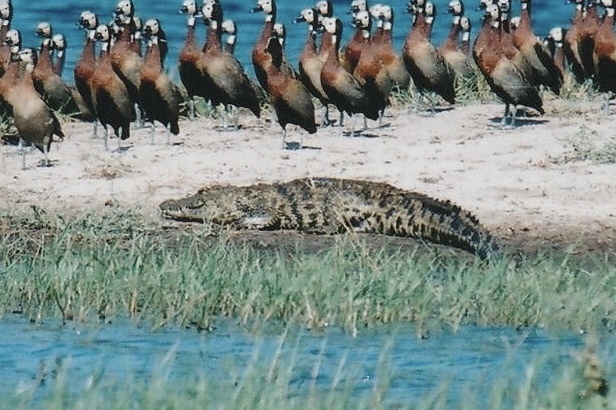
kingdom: Animalia
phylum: Chordata
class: Crocodylia
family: Crocodylidae
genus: Crocodylus
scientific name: Crocodylus niloticus
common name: Nile crocodile
